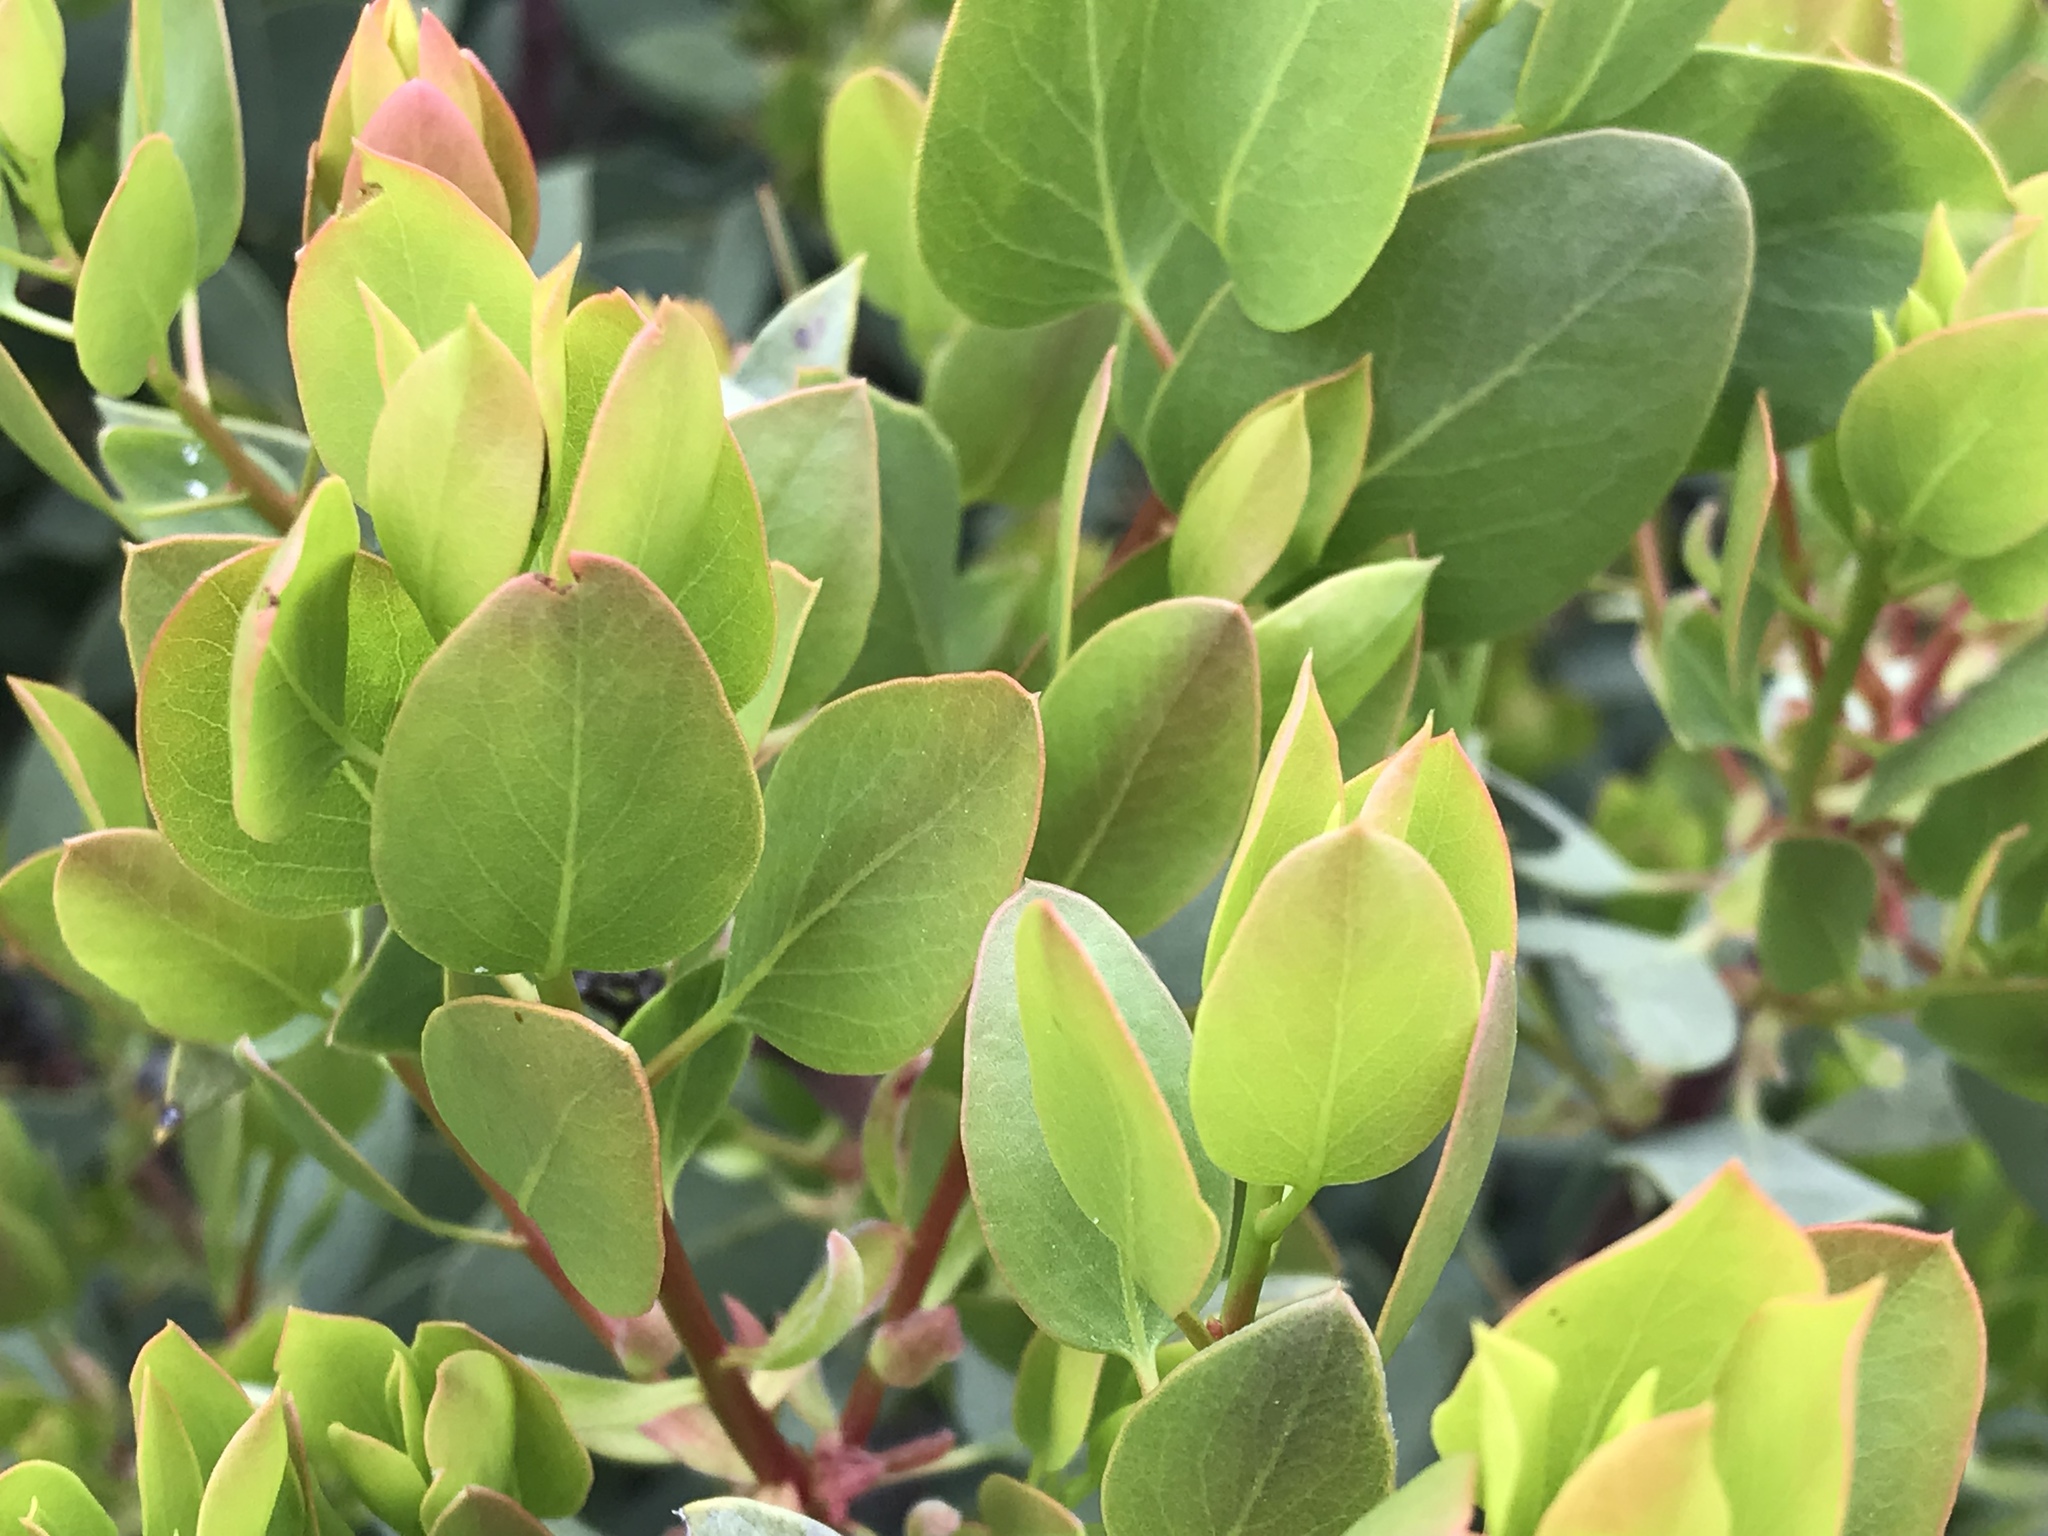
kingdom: Plantae
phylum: Tracheophyta
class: Magnoliopsida
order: Ericales
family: Ericaceae
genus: Arctostaphylos
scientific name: Arctostaphylos glauca
